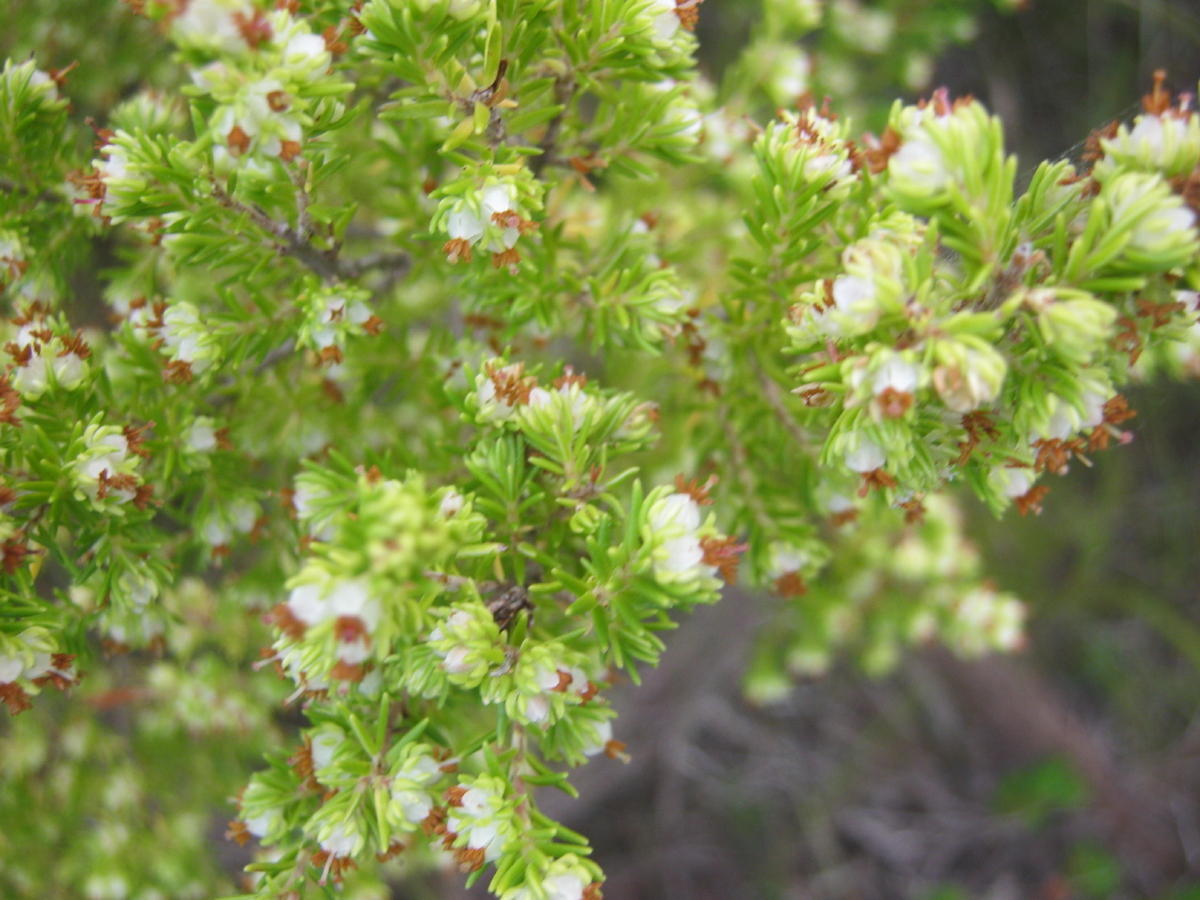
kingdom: Plantae
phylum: Tracheophyta
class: Magnoliopsida
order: Ericales
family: Ericaceae
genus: Erica
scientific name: Erica glumiflora
